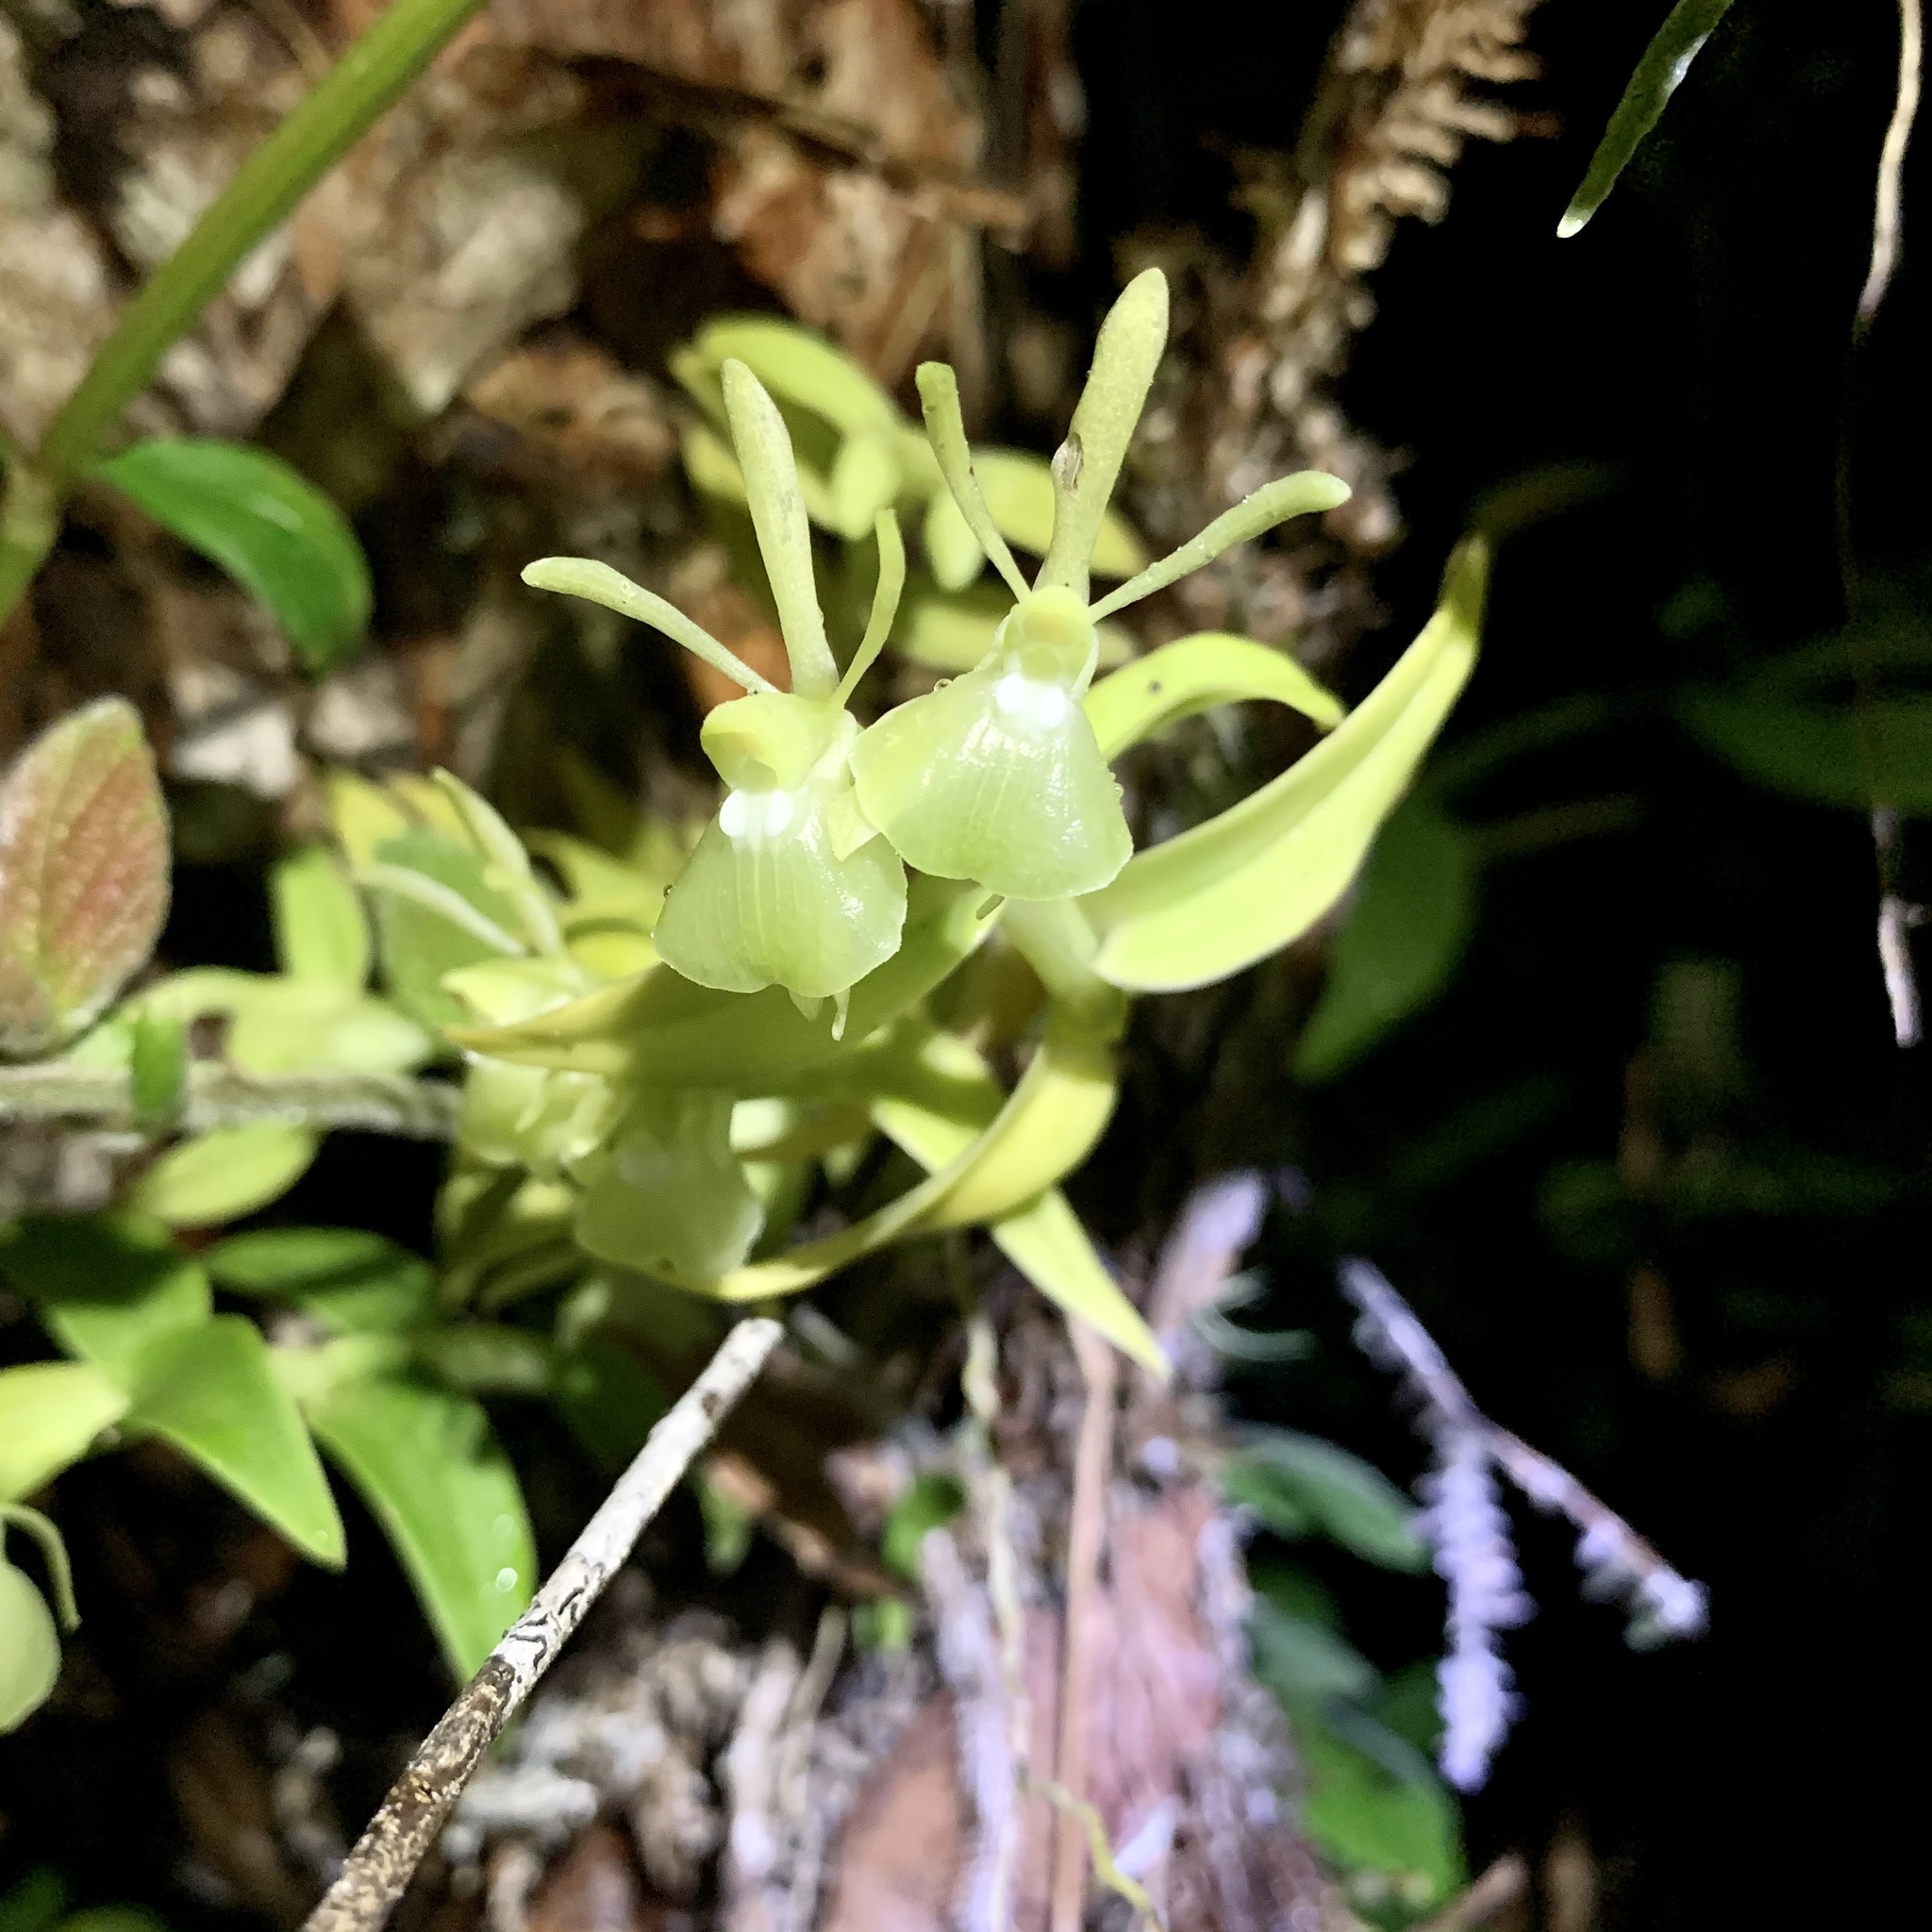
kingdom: Plantae
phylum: Tracheophyta
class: Liliopsida
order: Asparagales
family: Orchidaceae
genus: Epidendrum
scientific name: Epidendrum difforme
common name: Umbrella epidendrum
